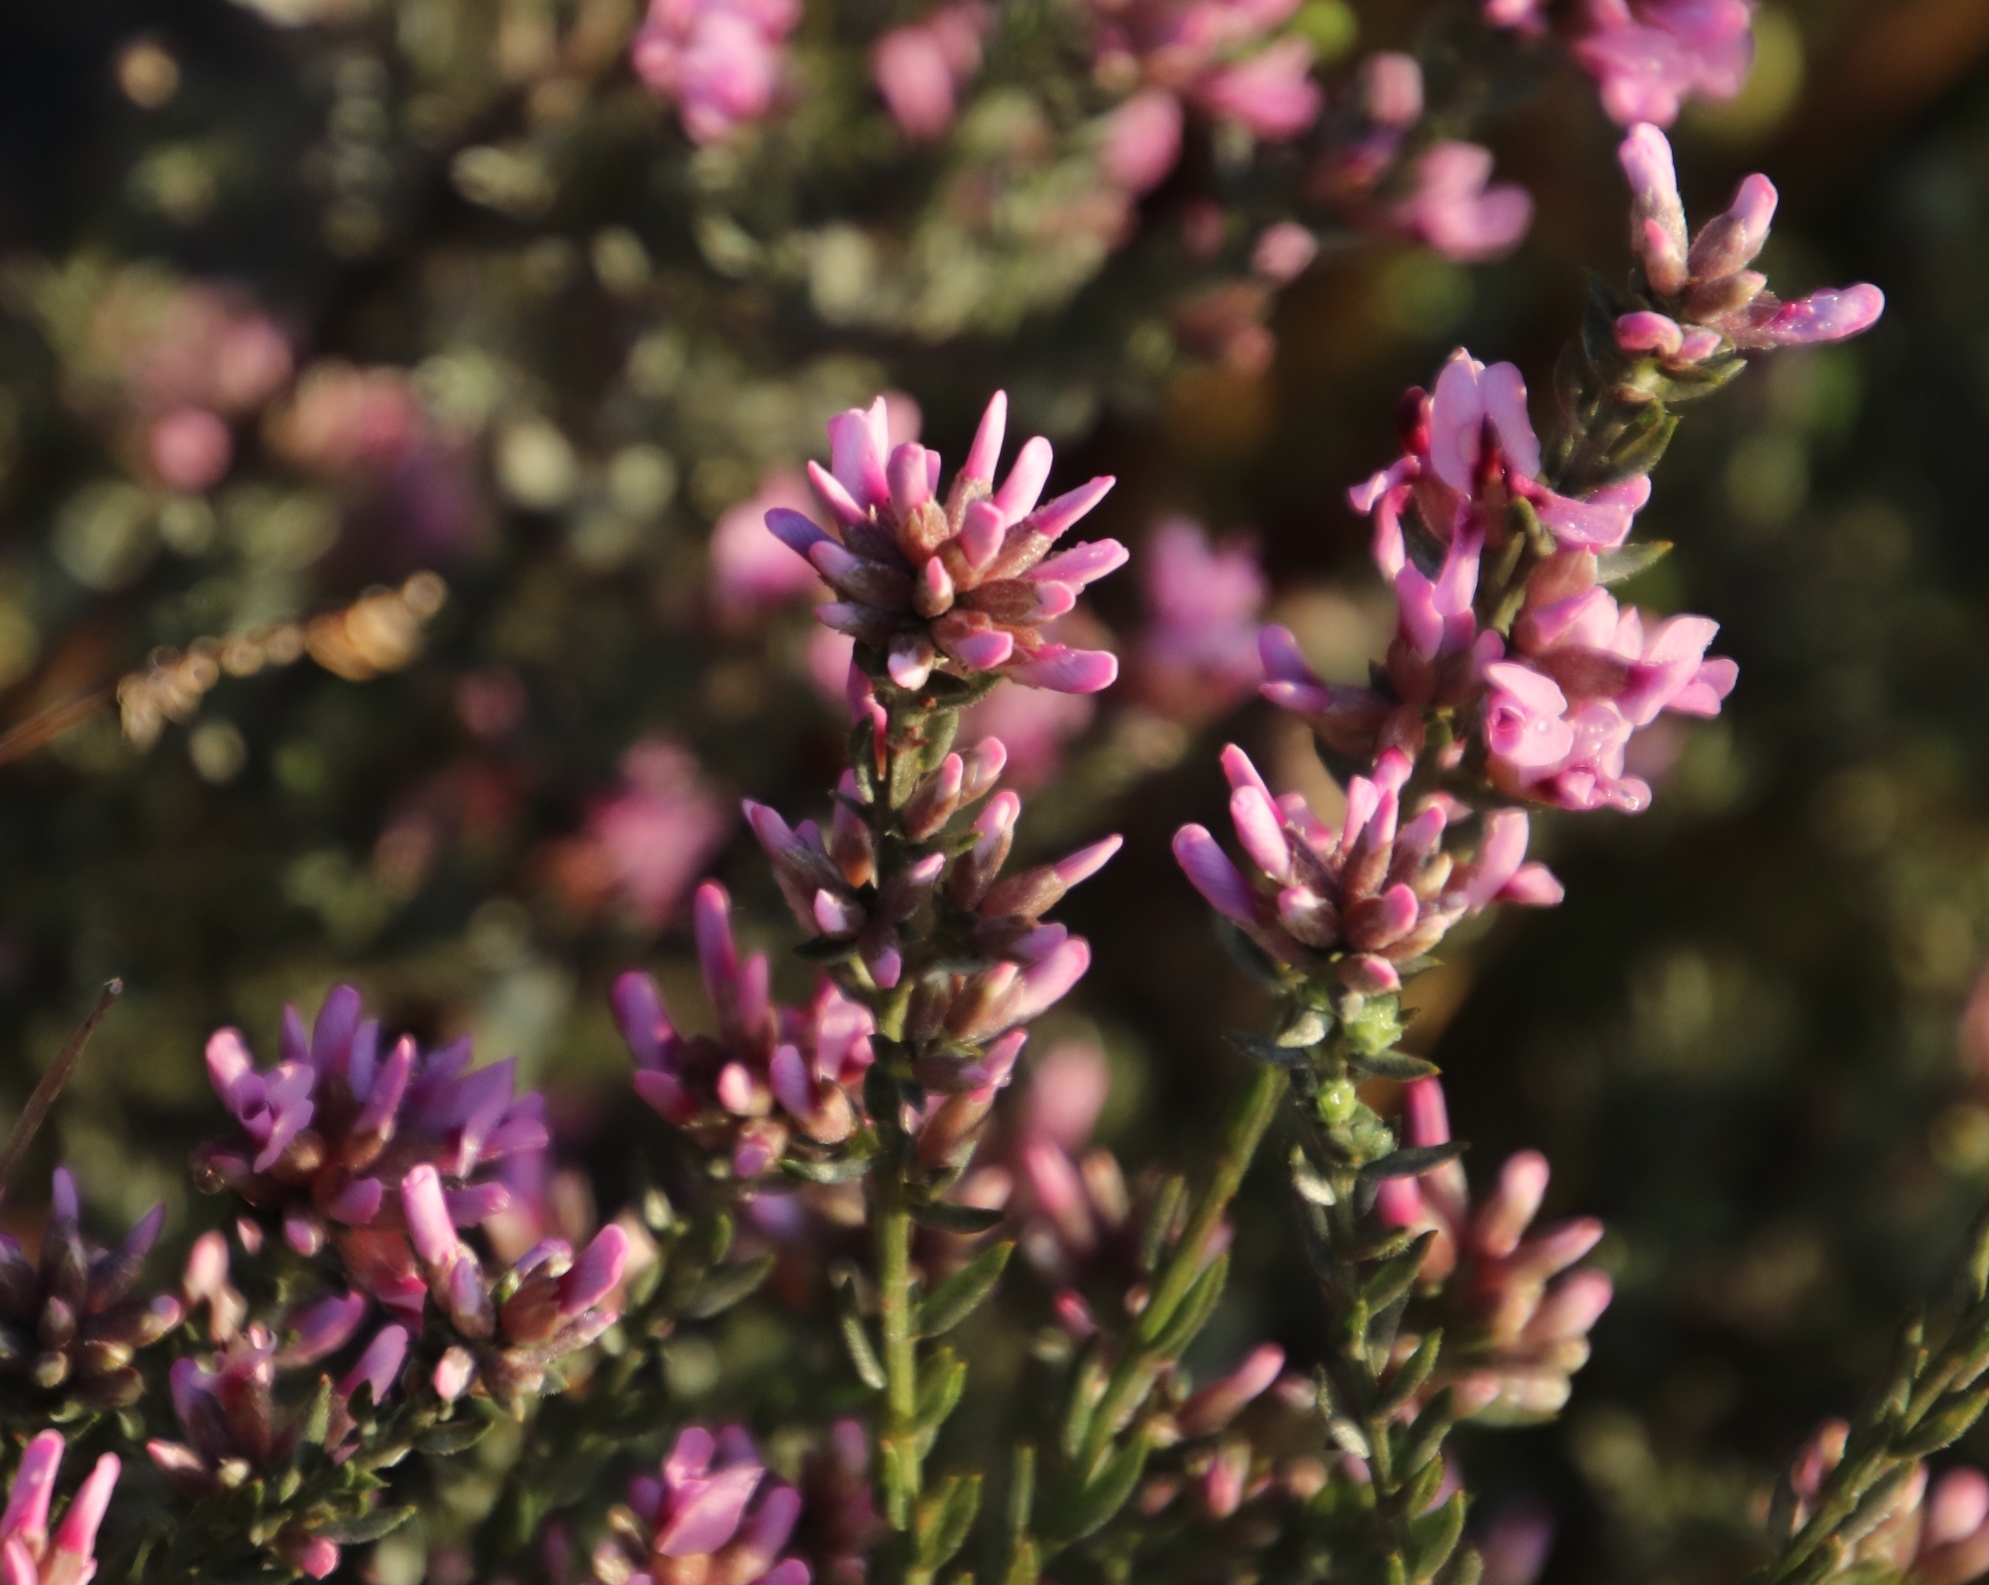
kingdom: Plantae
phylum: Tracheophyta
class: Magnoliopsida
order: Fabales
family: Fabaceae
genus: Amphithalea
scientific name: Amphithalea ericifolia
